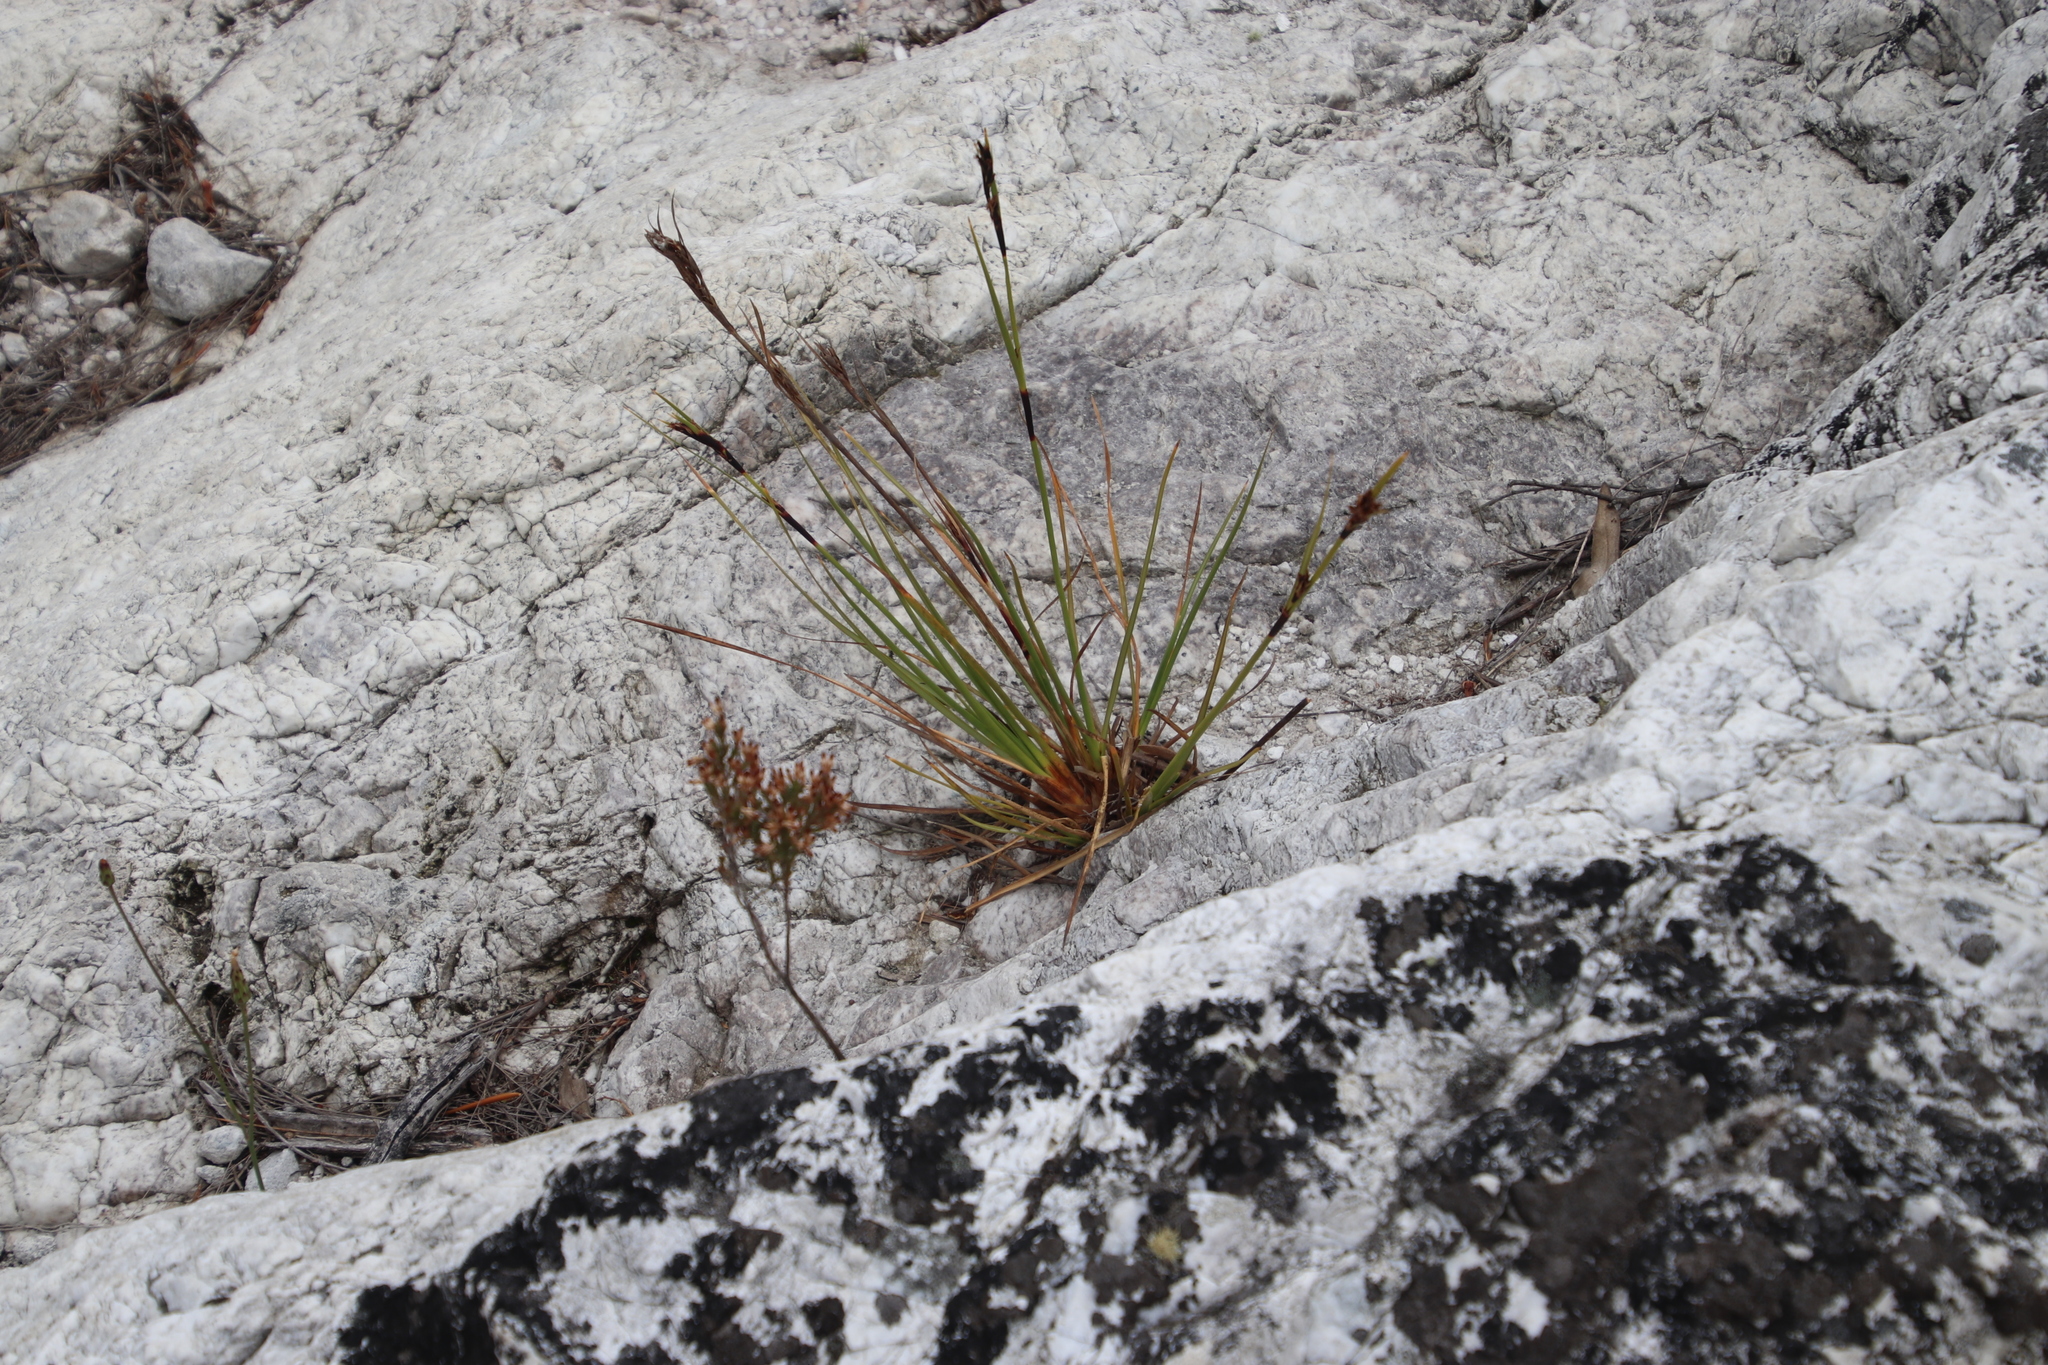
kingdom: Plantae
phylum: Tracheophyta
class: Liliopsida
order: Poales
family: Cyperaceae
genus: Cyathocoma
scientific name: Cyathocoma hexandra
